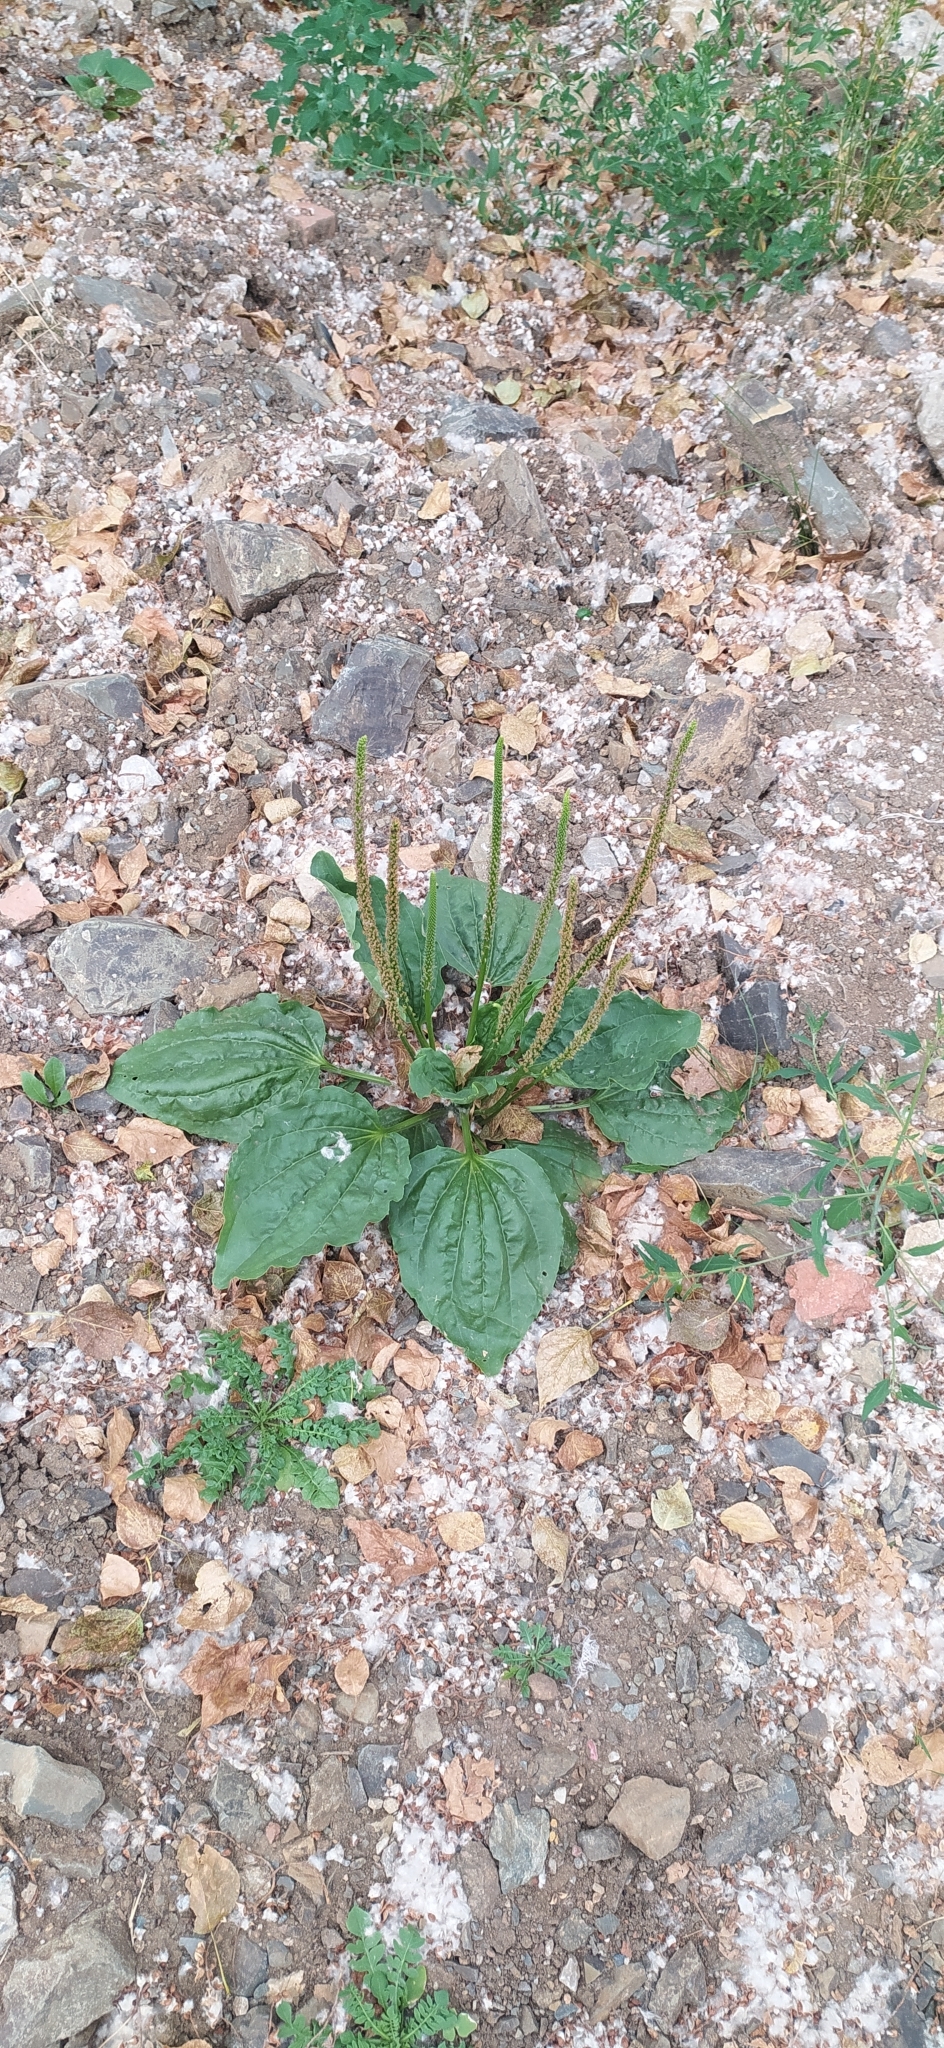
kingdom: Plantae
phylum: Tracheophyta
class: Magnoliopsida
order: Lamiales
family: Plantaginaceae
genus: Plantago
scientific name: Plantago major
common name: Common plantain
